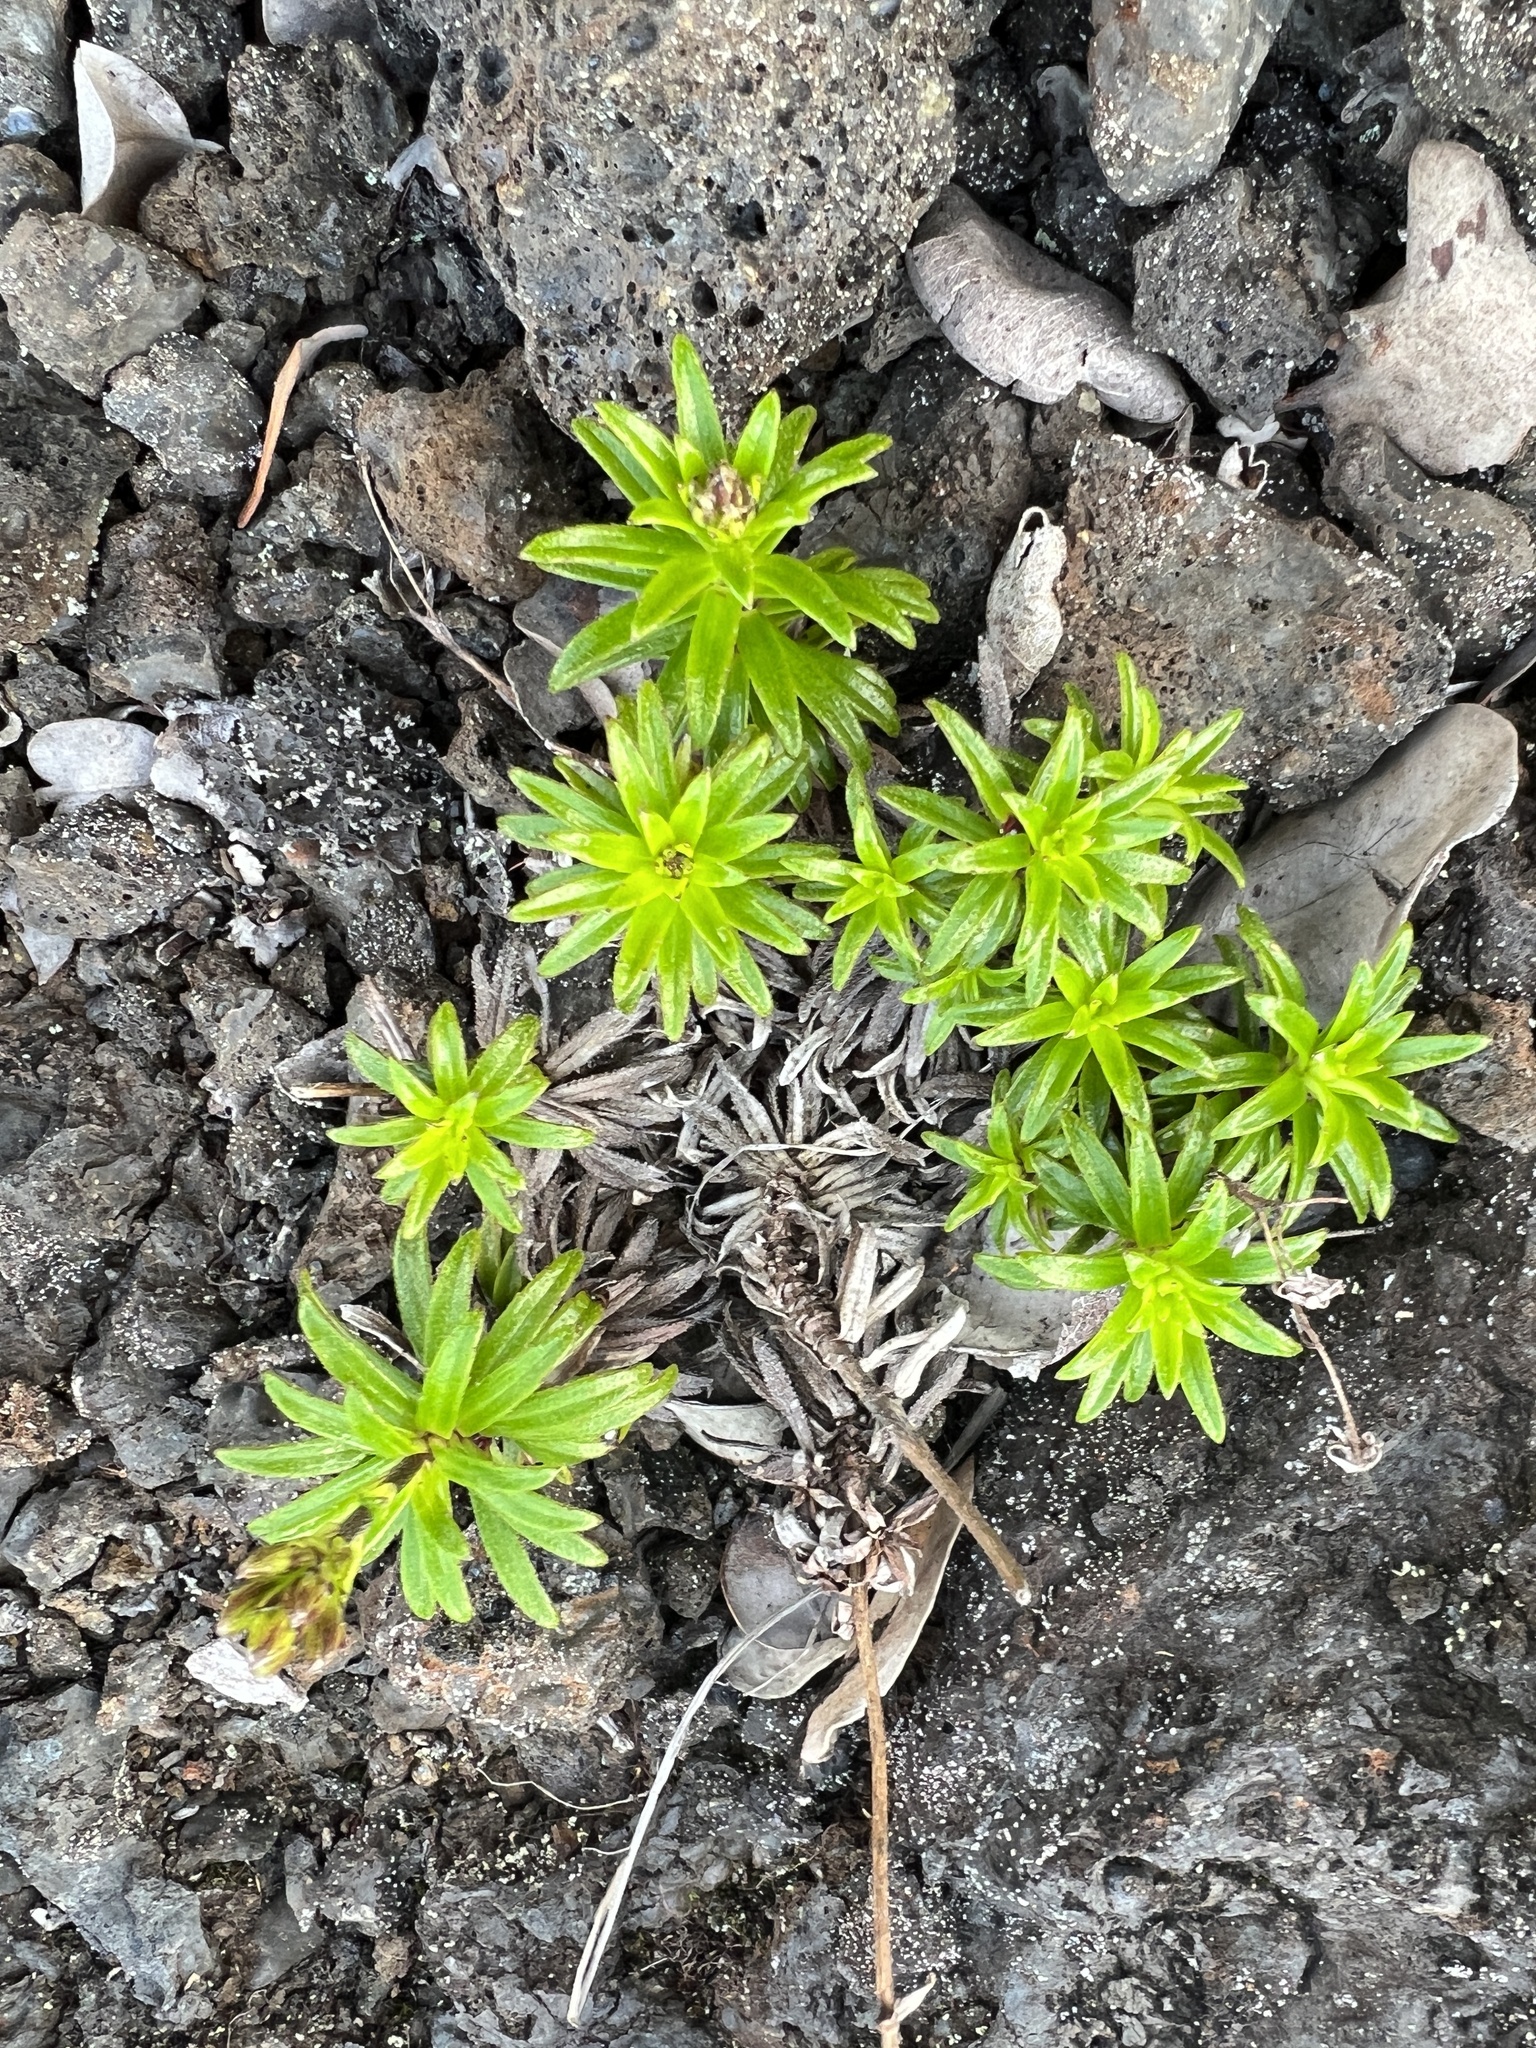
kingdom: Plantae
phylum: Tracheophyta
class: Magnoliopsida
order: Asterales
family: Asteraceae
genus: Dubautia
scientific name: Dubautia scabra
